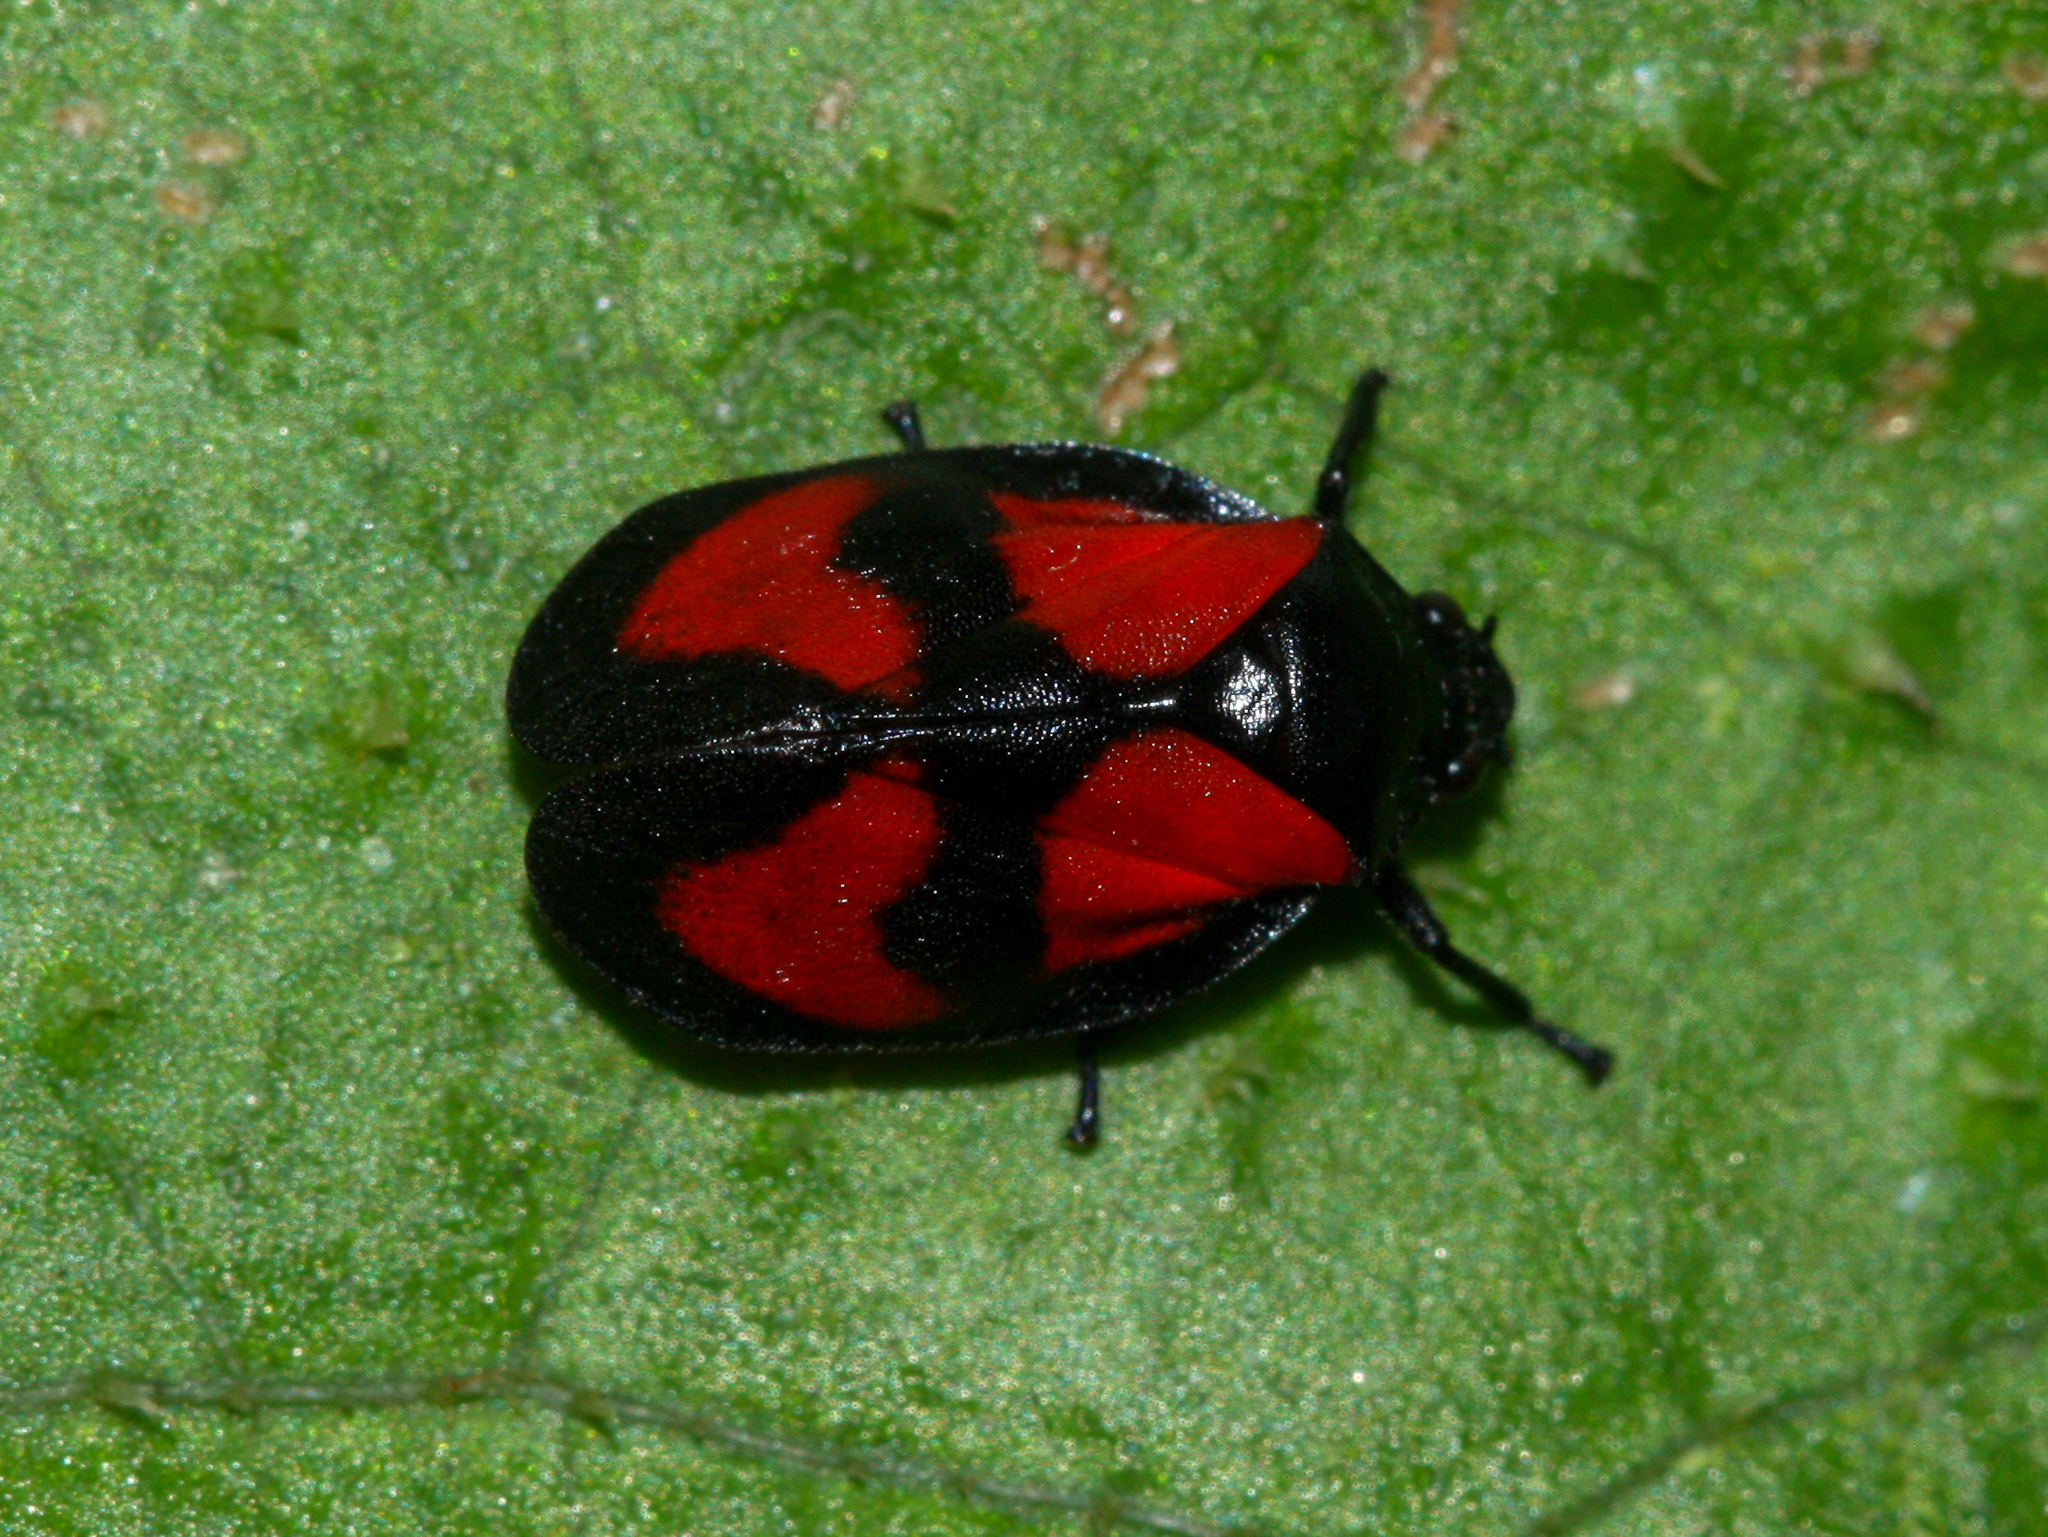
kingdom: Animalia
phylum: Arthropoda
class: Insecta
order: Hemiptera
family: Cercopidae
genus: Mahanarva
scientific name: Mahanarva cruxminor
